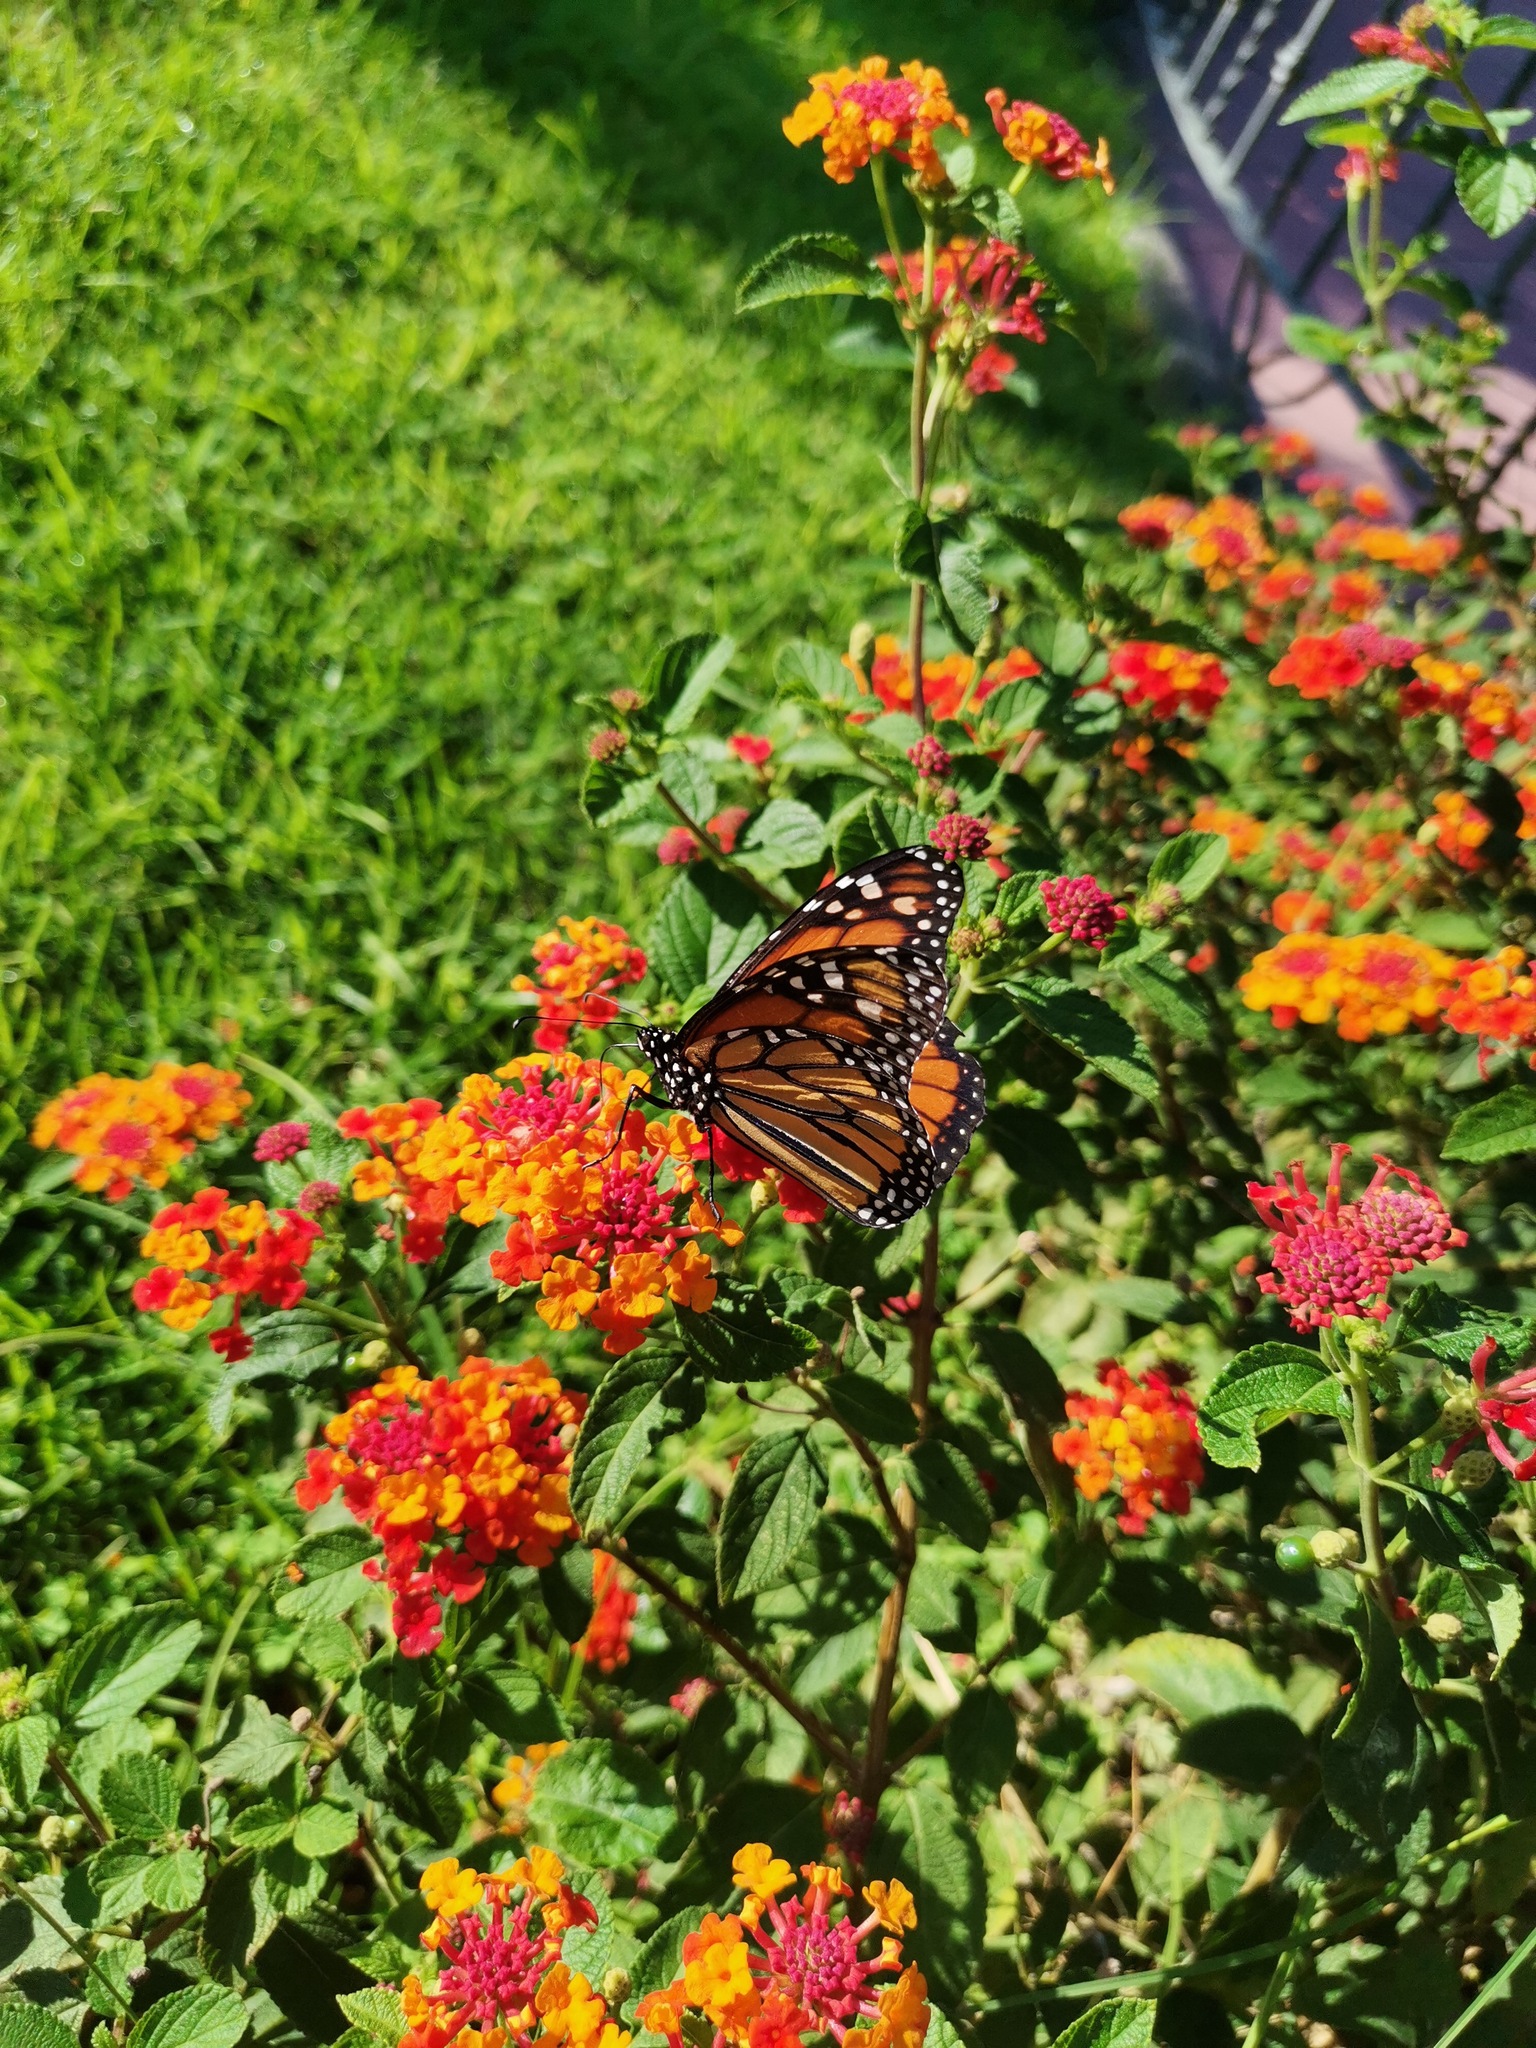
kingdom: Animalia
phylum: Arthropoda
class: Insecta
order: Lepidoptera
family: Nymphalidae
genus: Danaus
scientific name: Danaus plexippus
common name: Monarch
